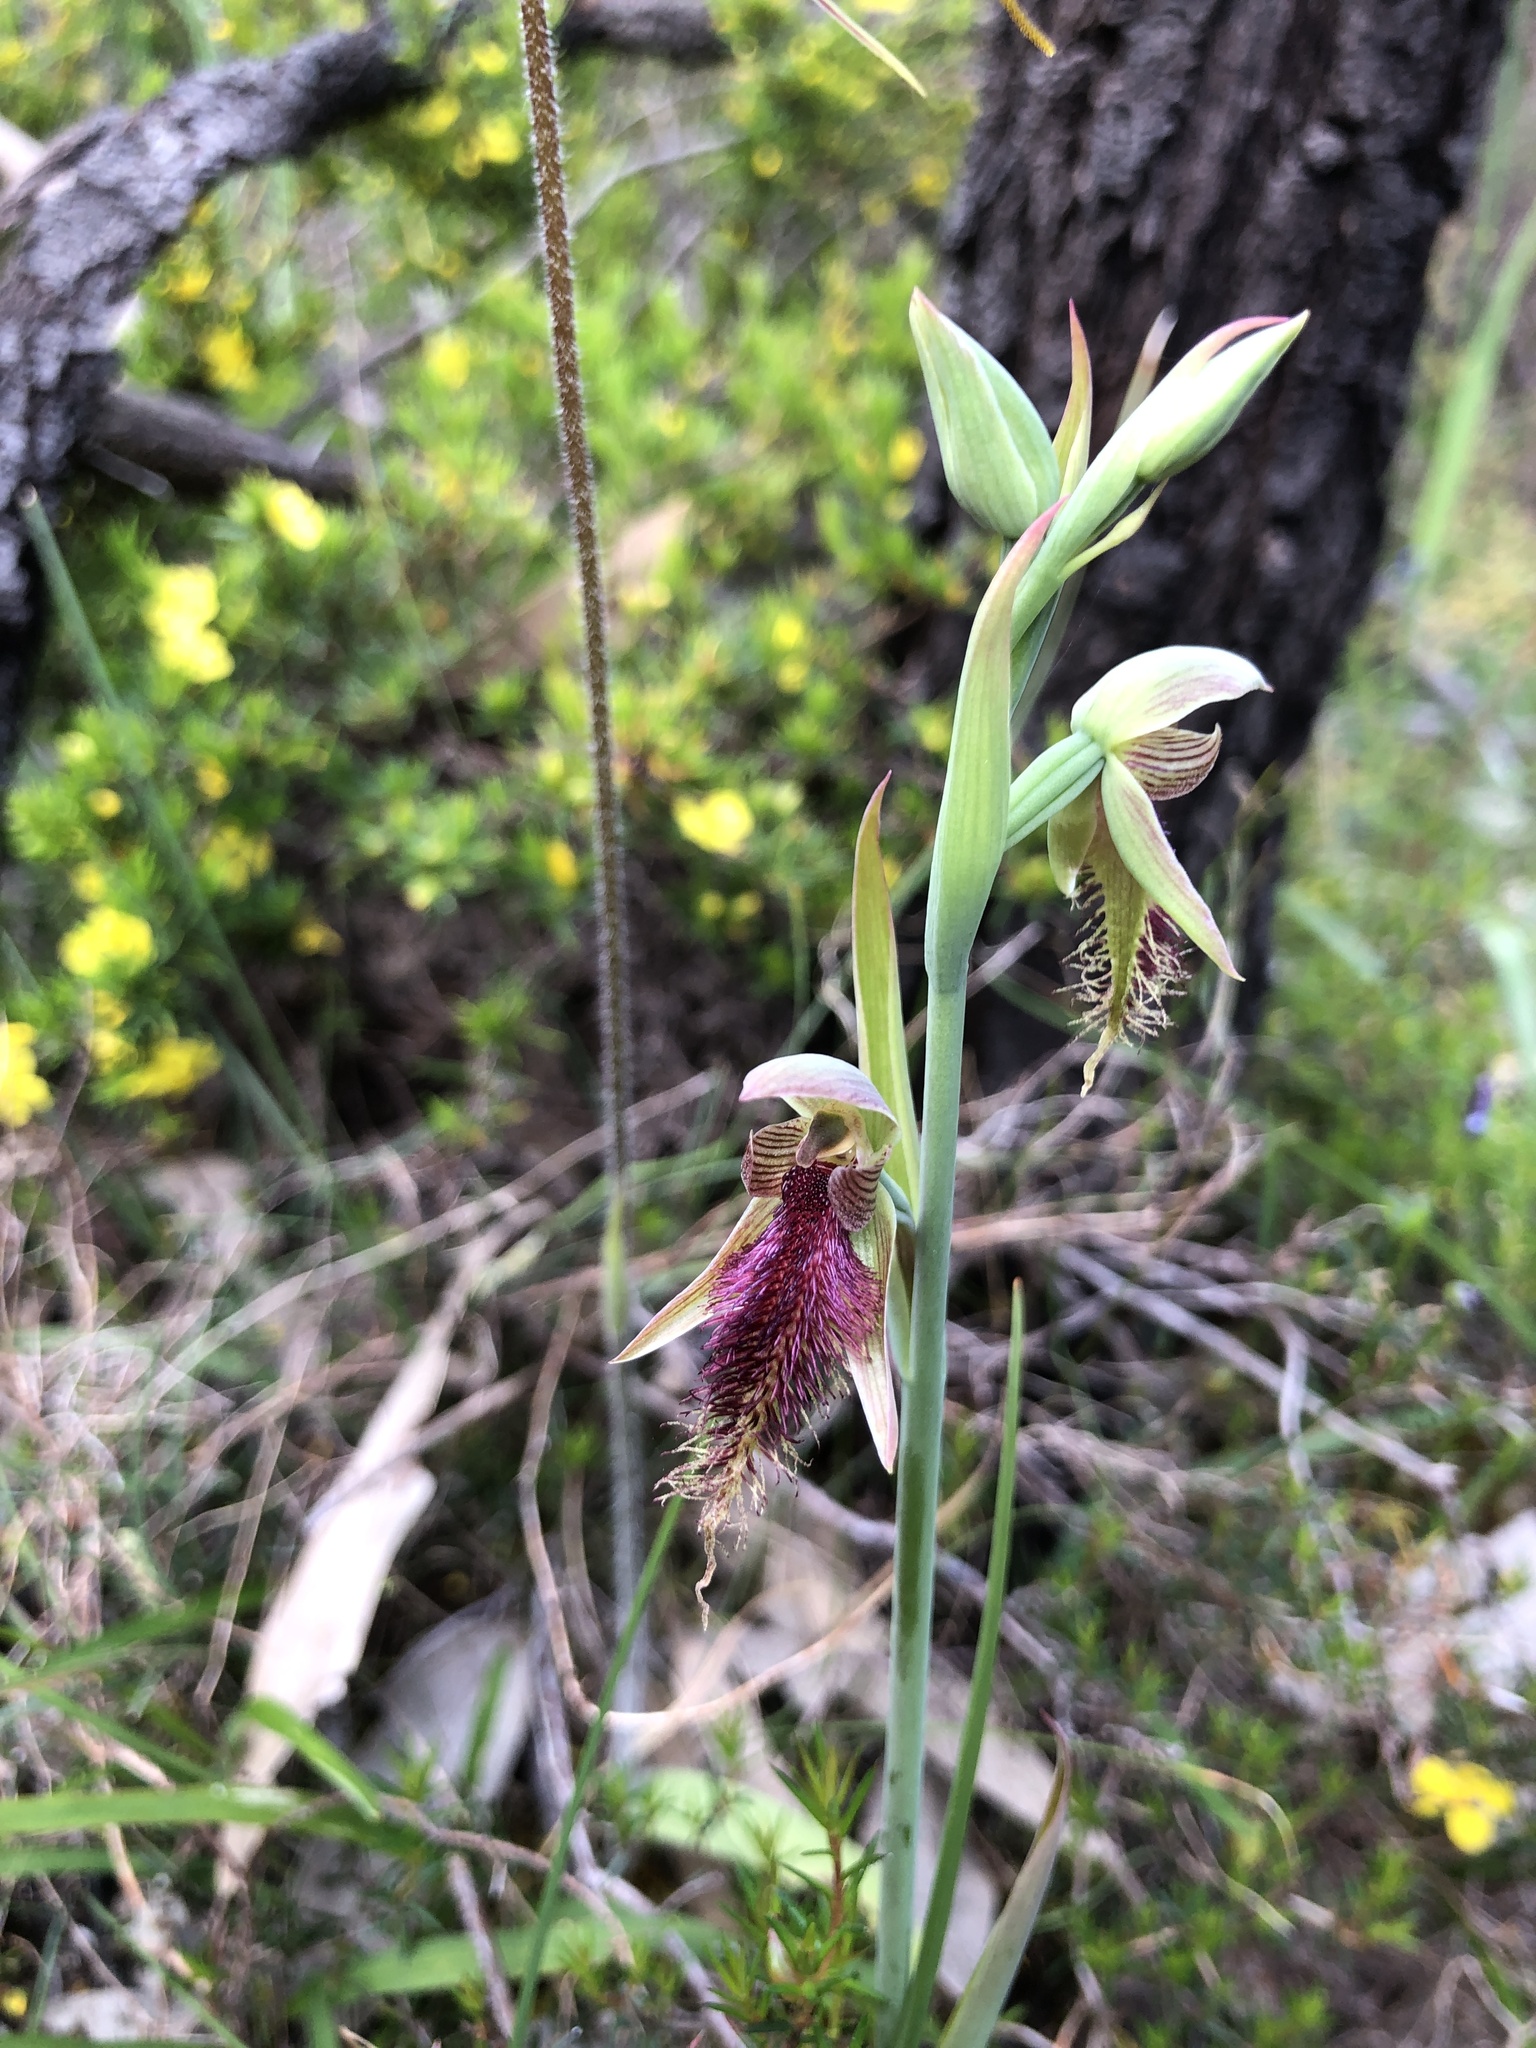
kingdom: Plantae
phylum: Tracheophyta
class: Liliopsida
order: Asparagales
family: Orchidaceae
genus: Calochilus
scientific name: Calochilus robertsonii
